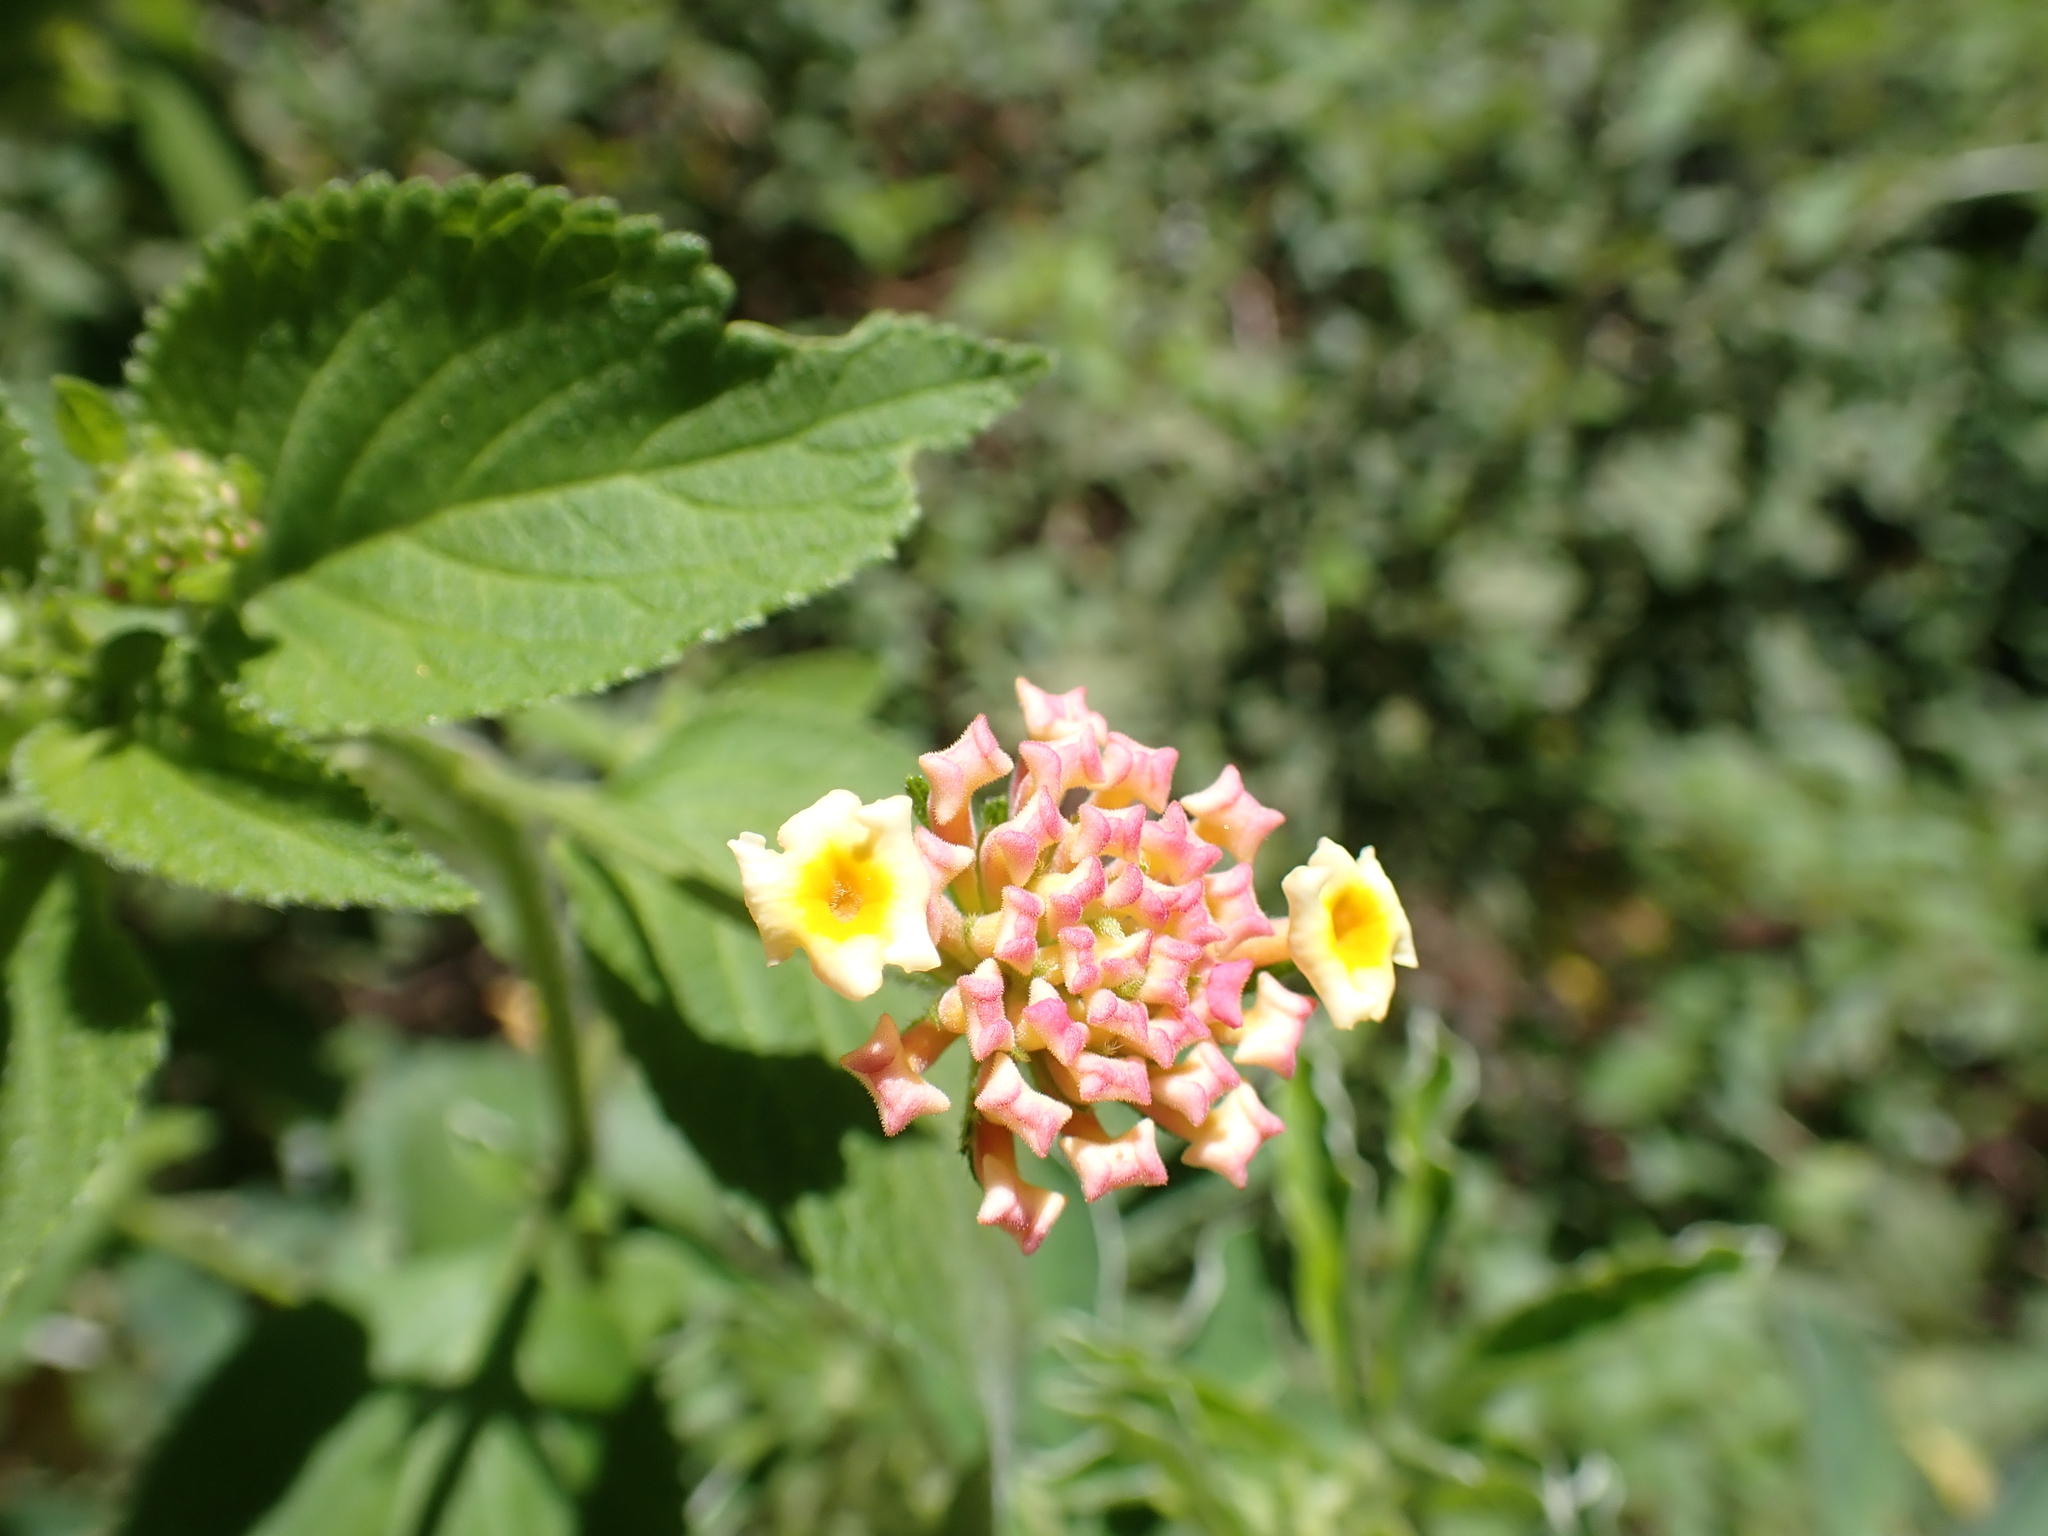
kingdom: Plantae
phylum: Tracheophyta
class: Magnoliopsida
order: Lamiales
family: Verbenaceae
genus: Lantana
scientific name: Lantana camara
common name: Lantana
